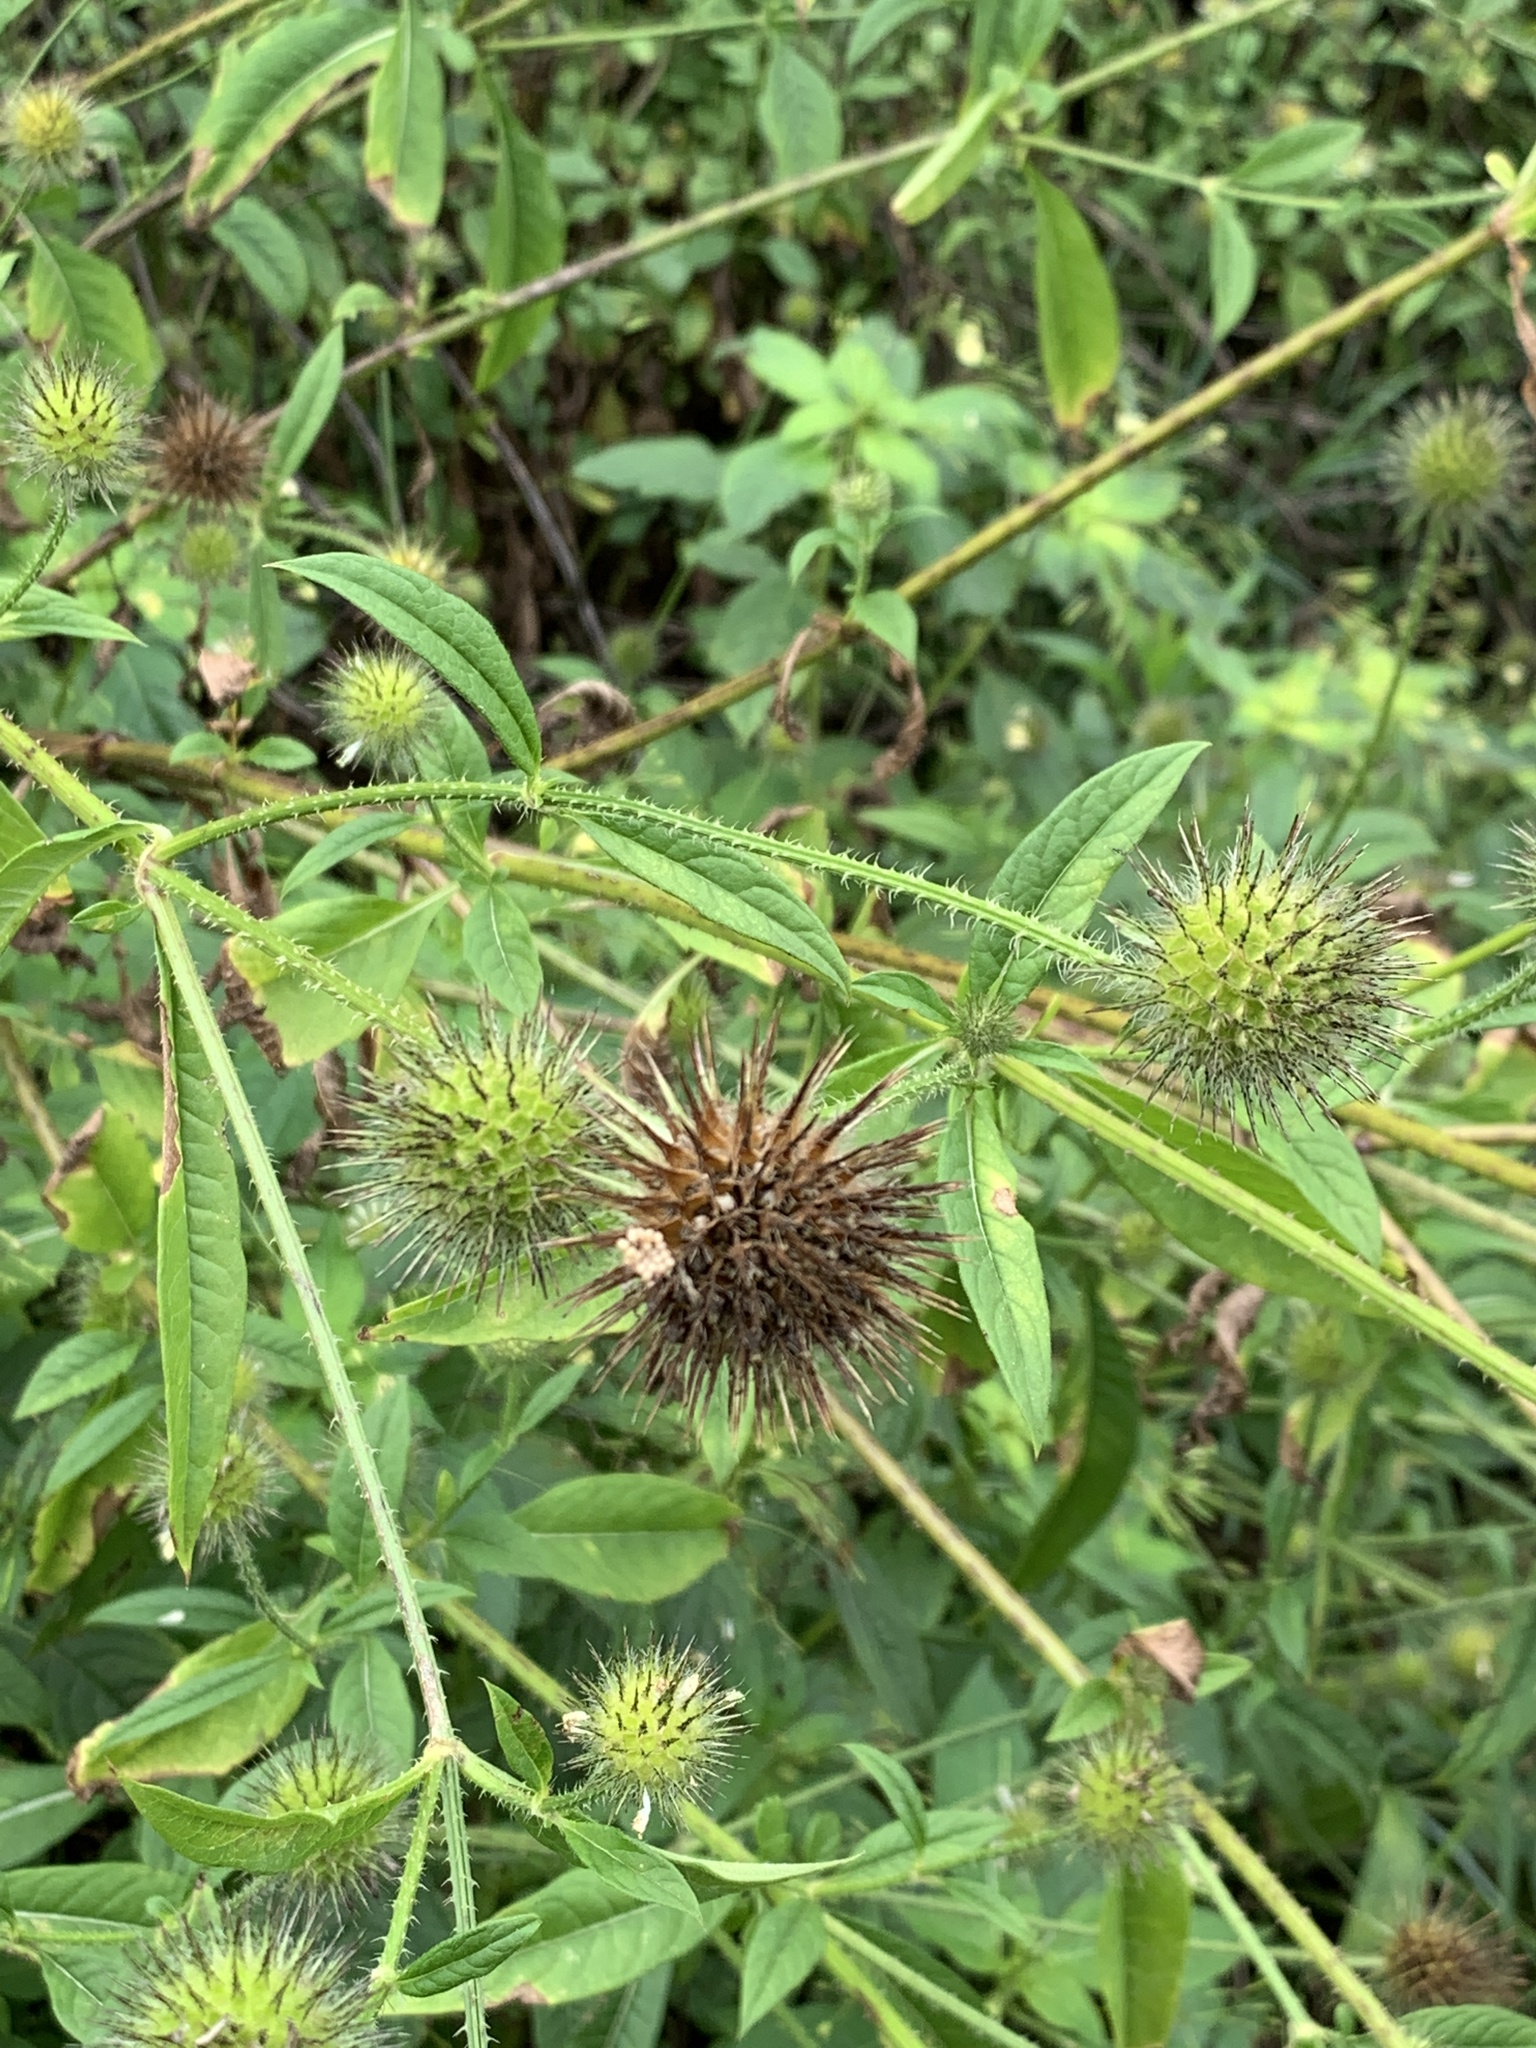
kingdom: Plantae
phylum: Tracheophyta
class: Magnoliopsida
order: Dipsacales
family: Caprifoliaceae
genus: Dipsacus
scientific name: Dipsacus strigosus
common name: Yellow-flowered teasel
